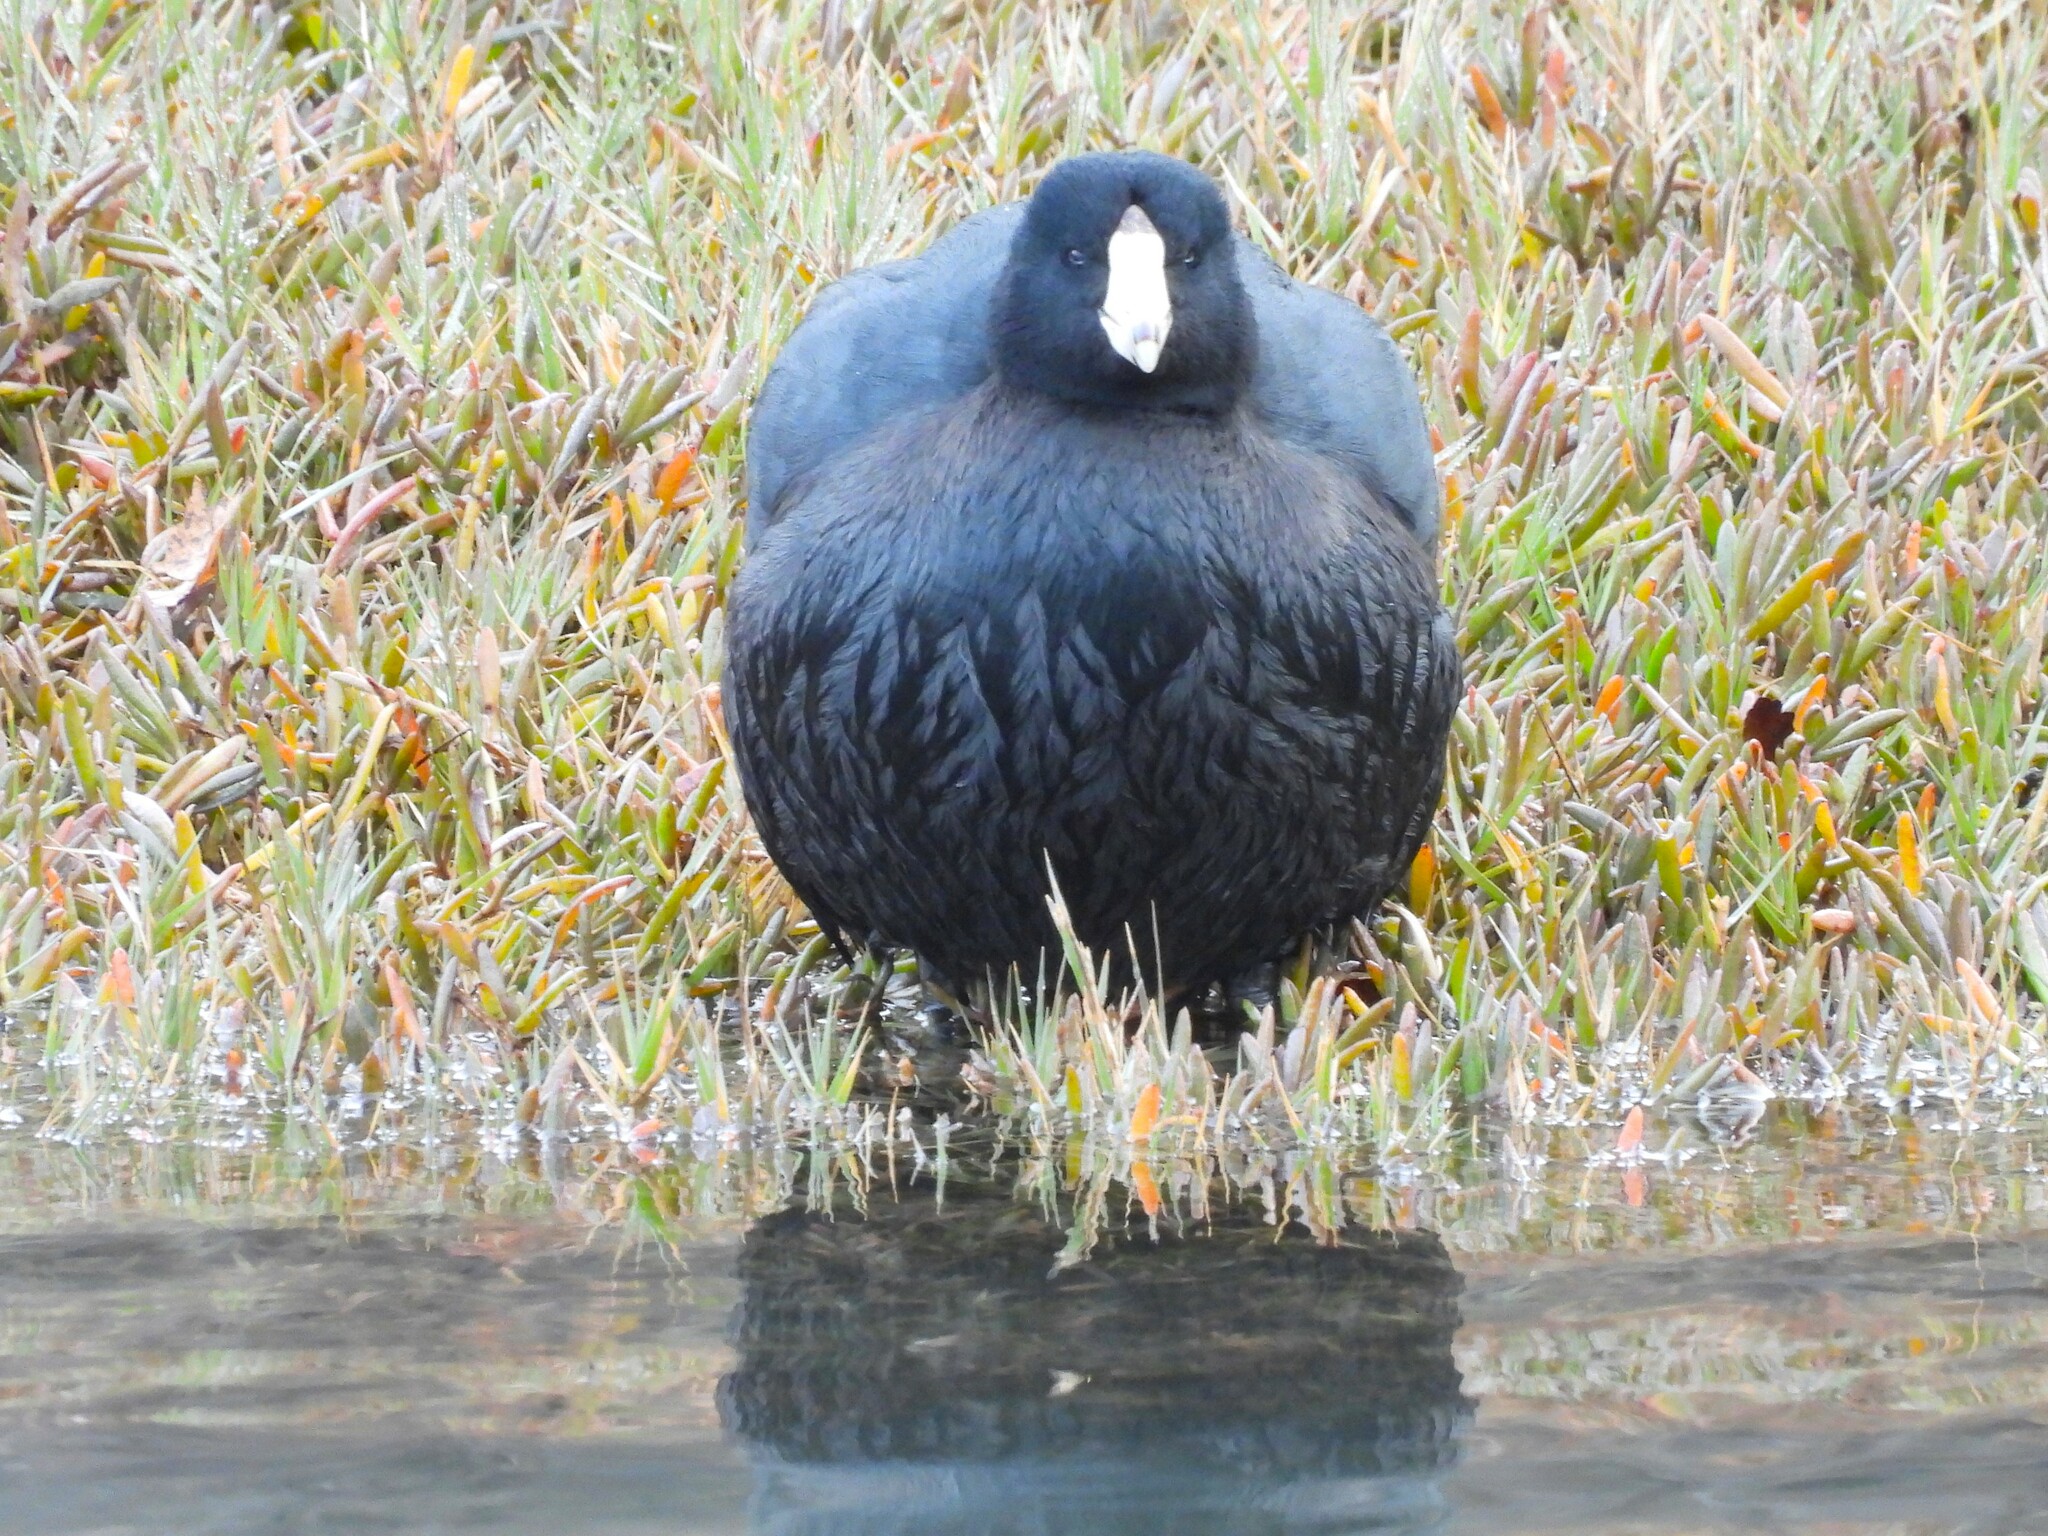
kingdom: Animalia
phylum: Chordata
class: Aves
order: Gruiformes
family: Rallidae
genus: Fulica
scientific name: Fulica americana
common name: American coot
